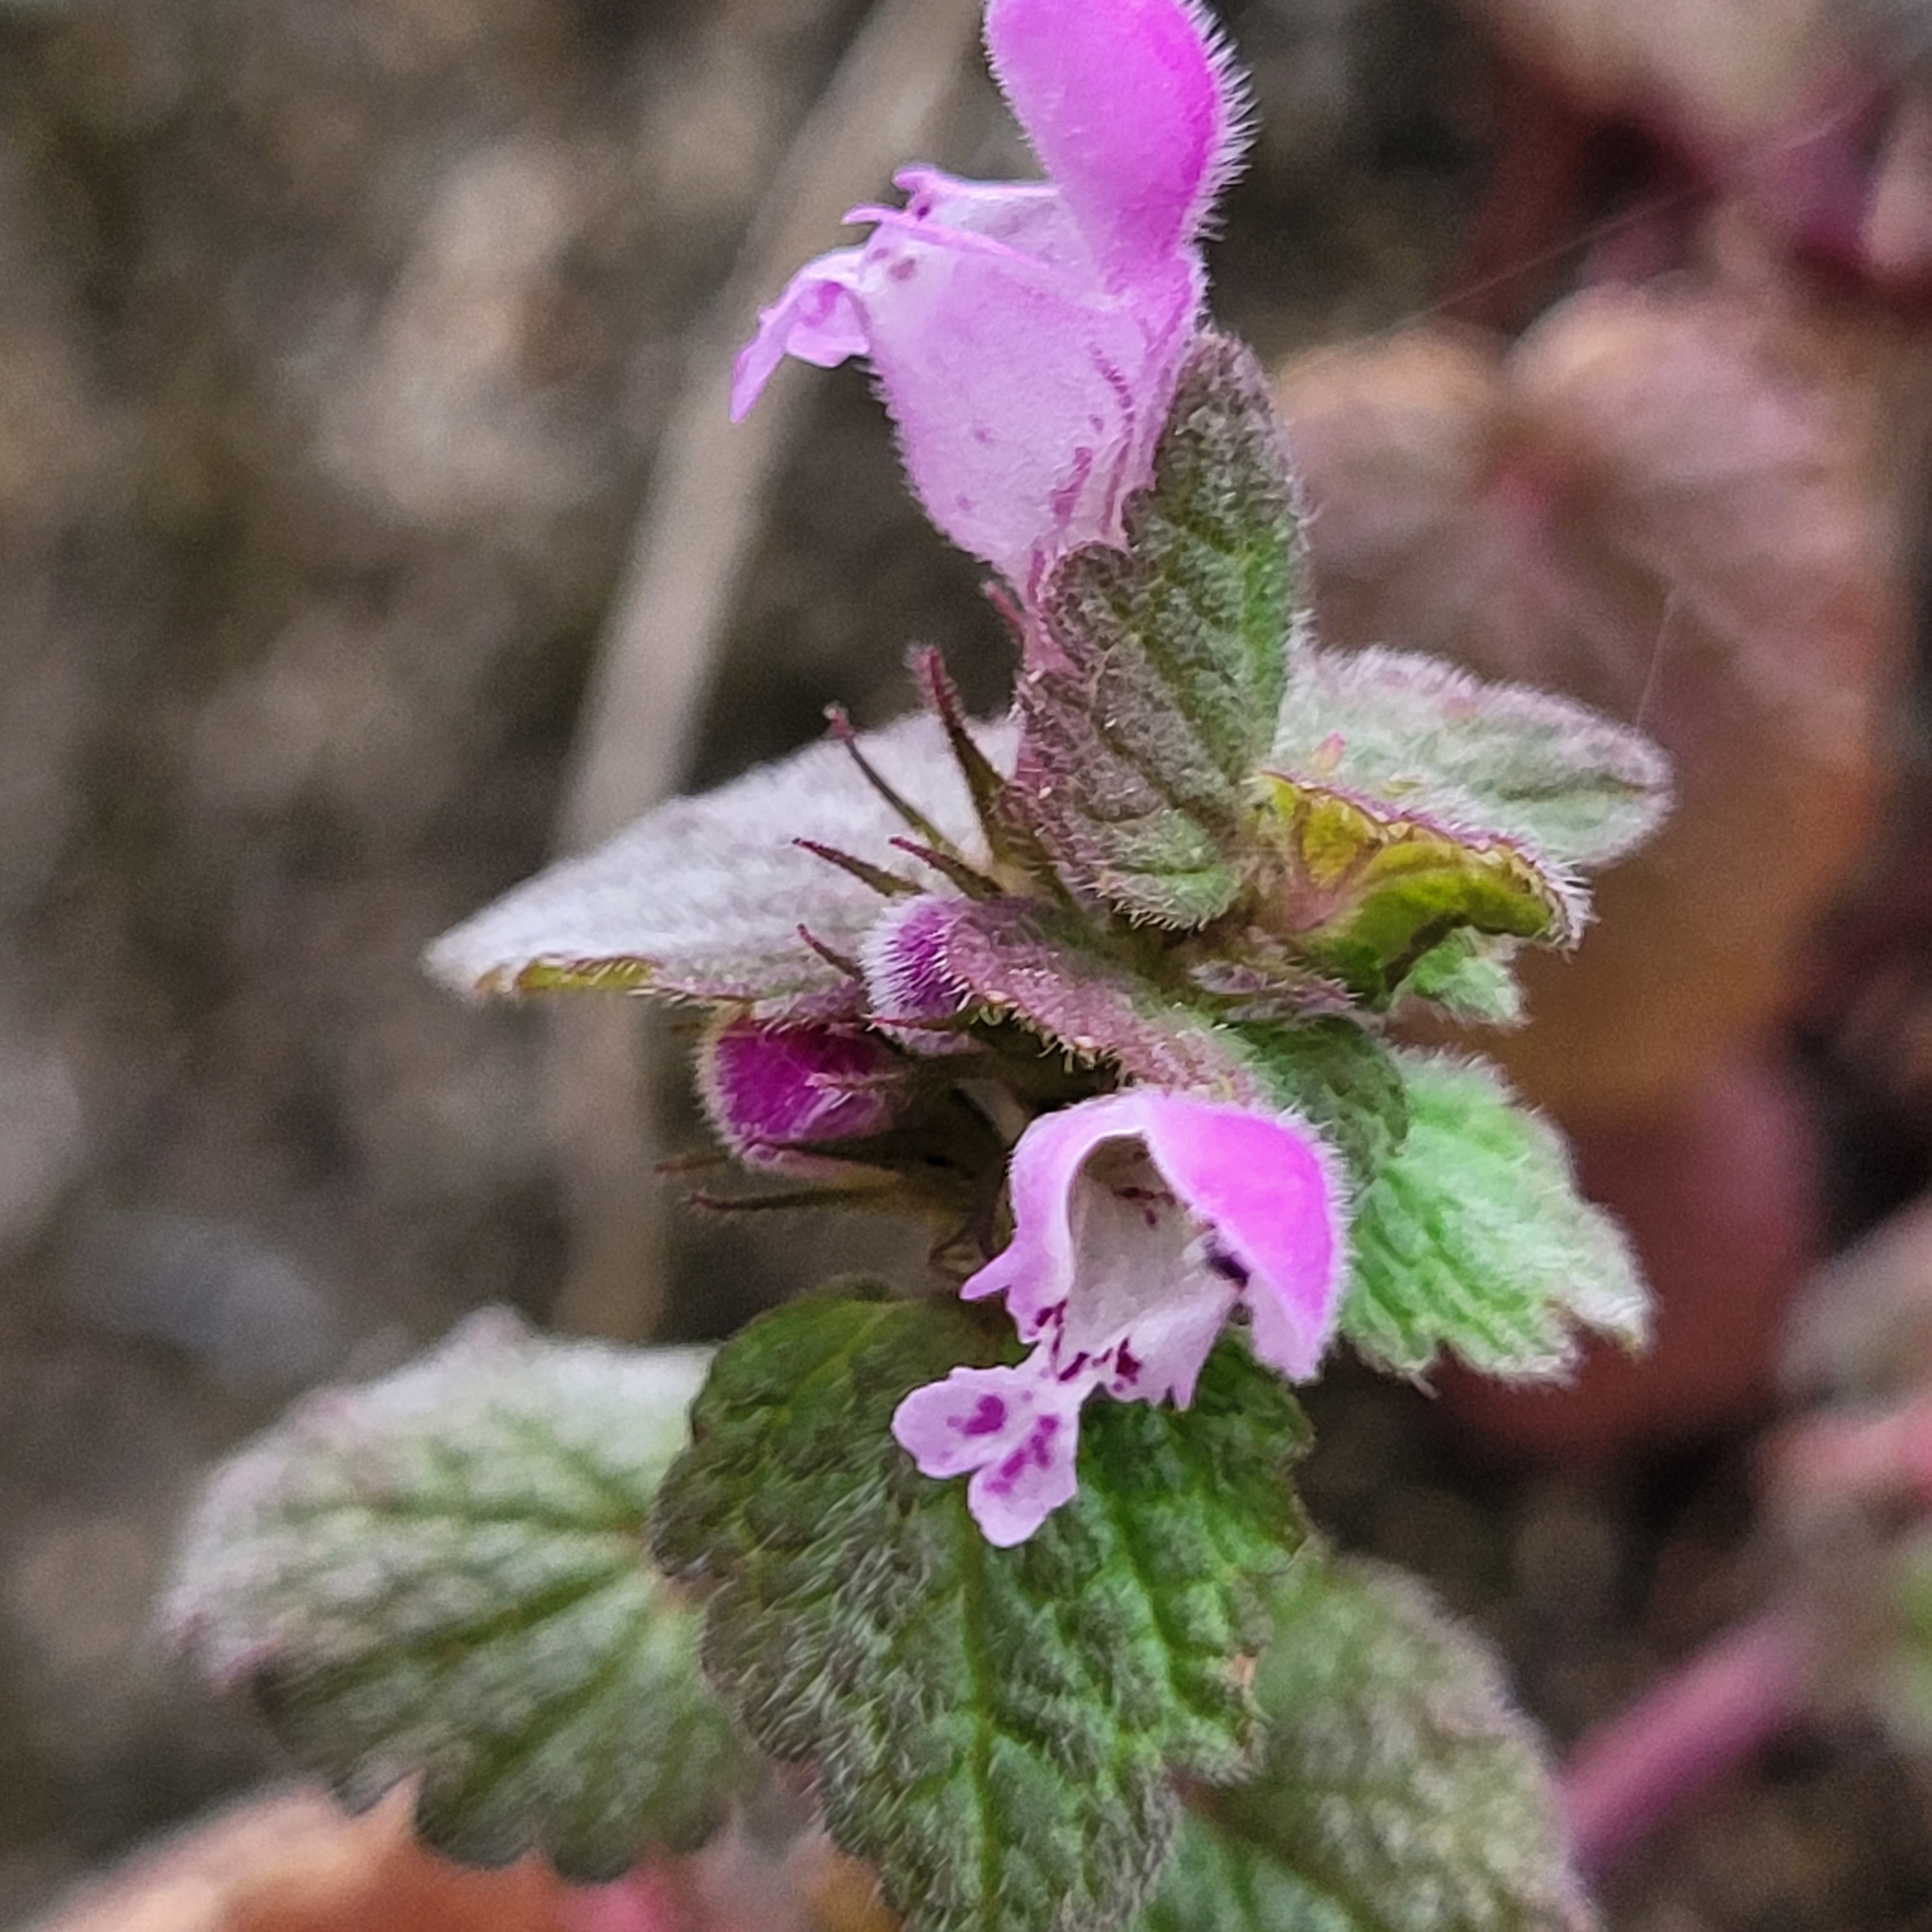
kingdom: Plantae
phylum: Tracheophyta
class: Magnoliopsida
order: Lamiales
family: Lamiaceae
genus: Lamium
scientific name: Lamium purpureum
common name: Red dead-nettle
